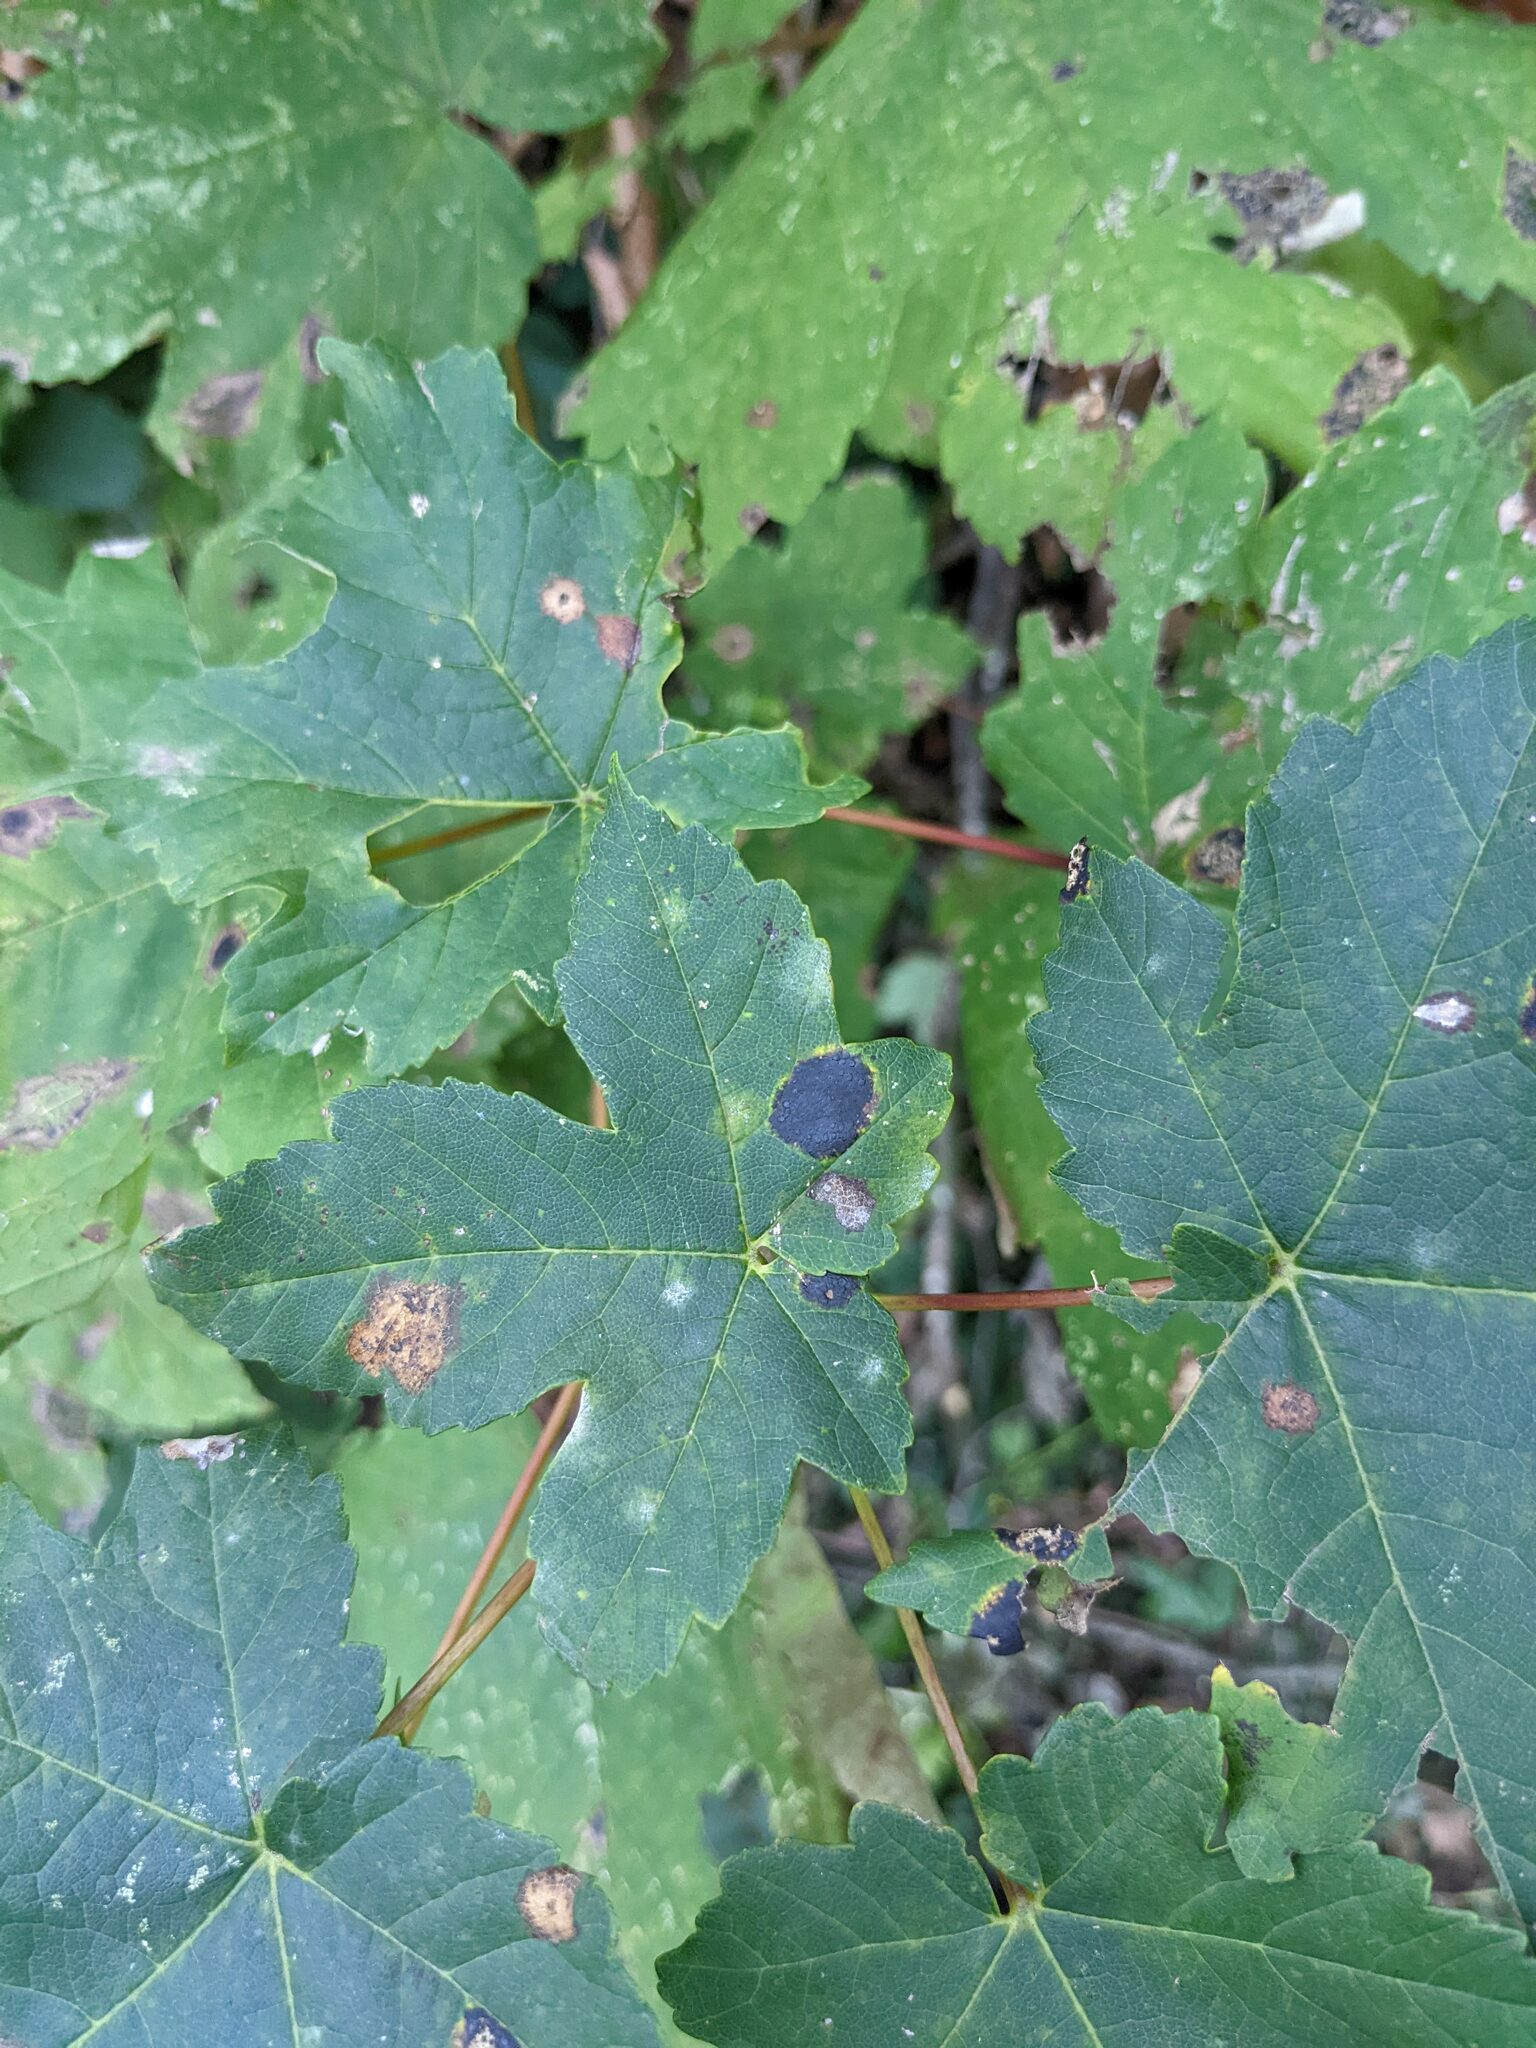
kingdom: Plantae
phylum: Tracheophyta
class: Magnoliopsida
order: Sapindales
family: Sapindaceae
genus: Acer
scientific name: Acer pseudoplatanus
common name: Sycamore
